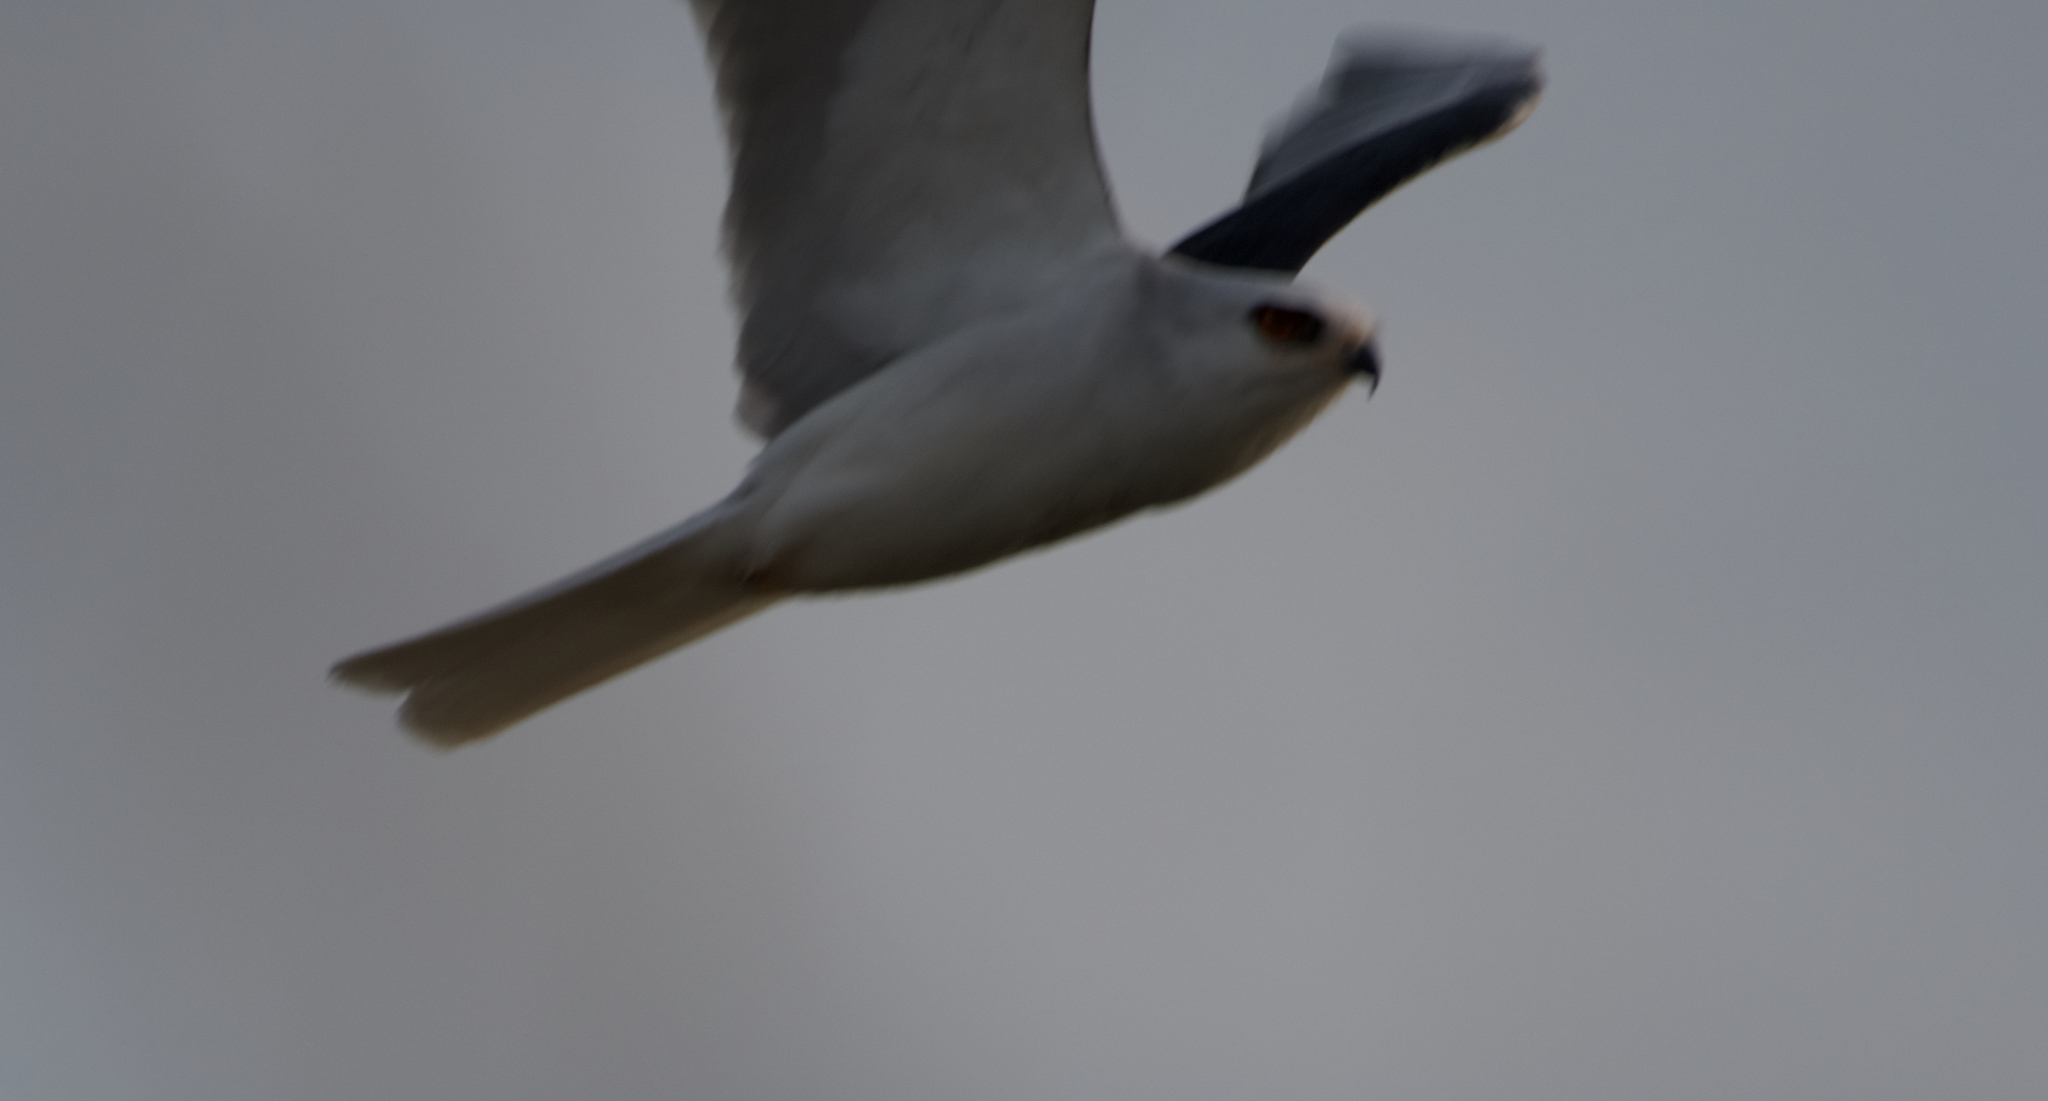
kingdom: Animalia
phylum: Chordata
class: Aves
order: Accipitriformes
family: Accipitridae
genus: Elanus
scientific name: Elanus leucurus
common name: White-tailed kite
